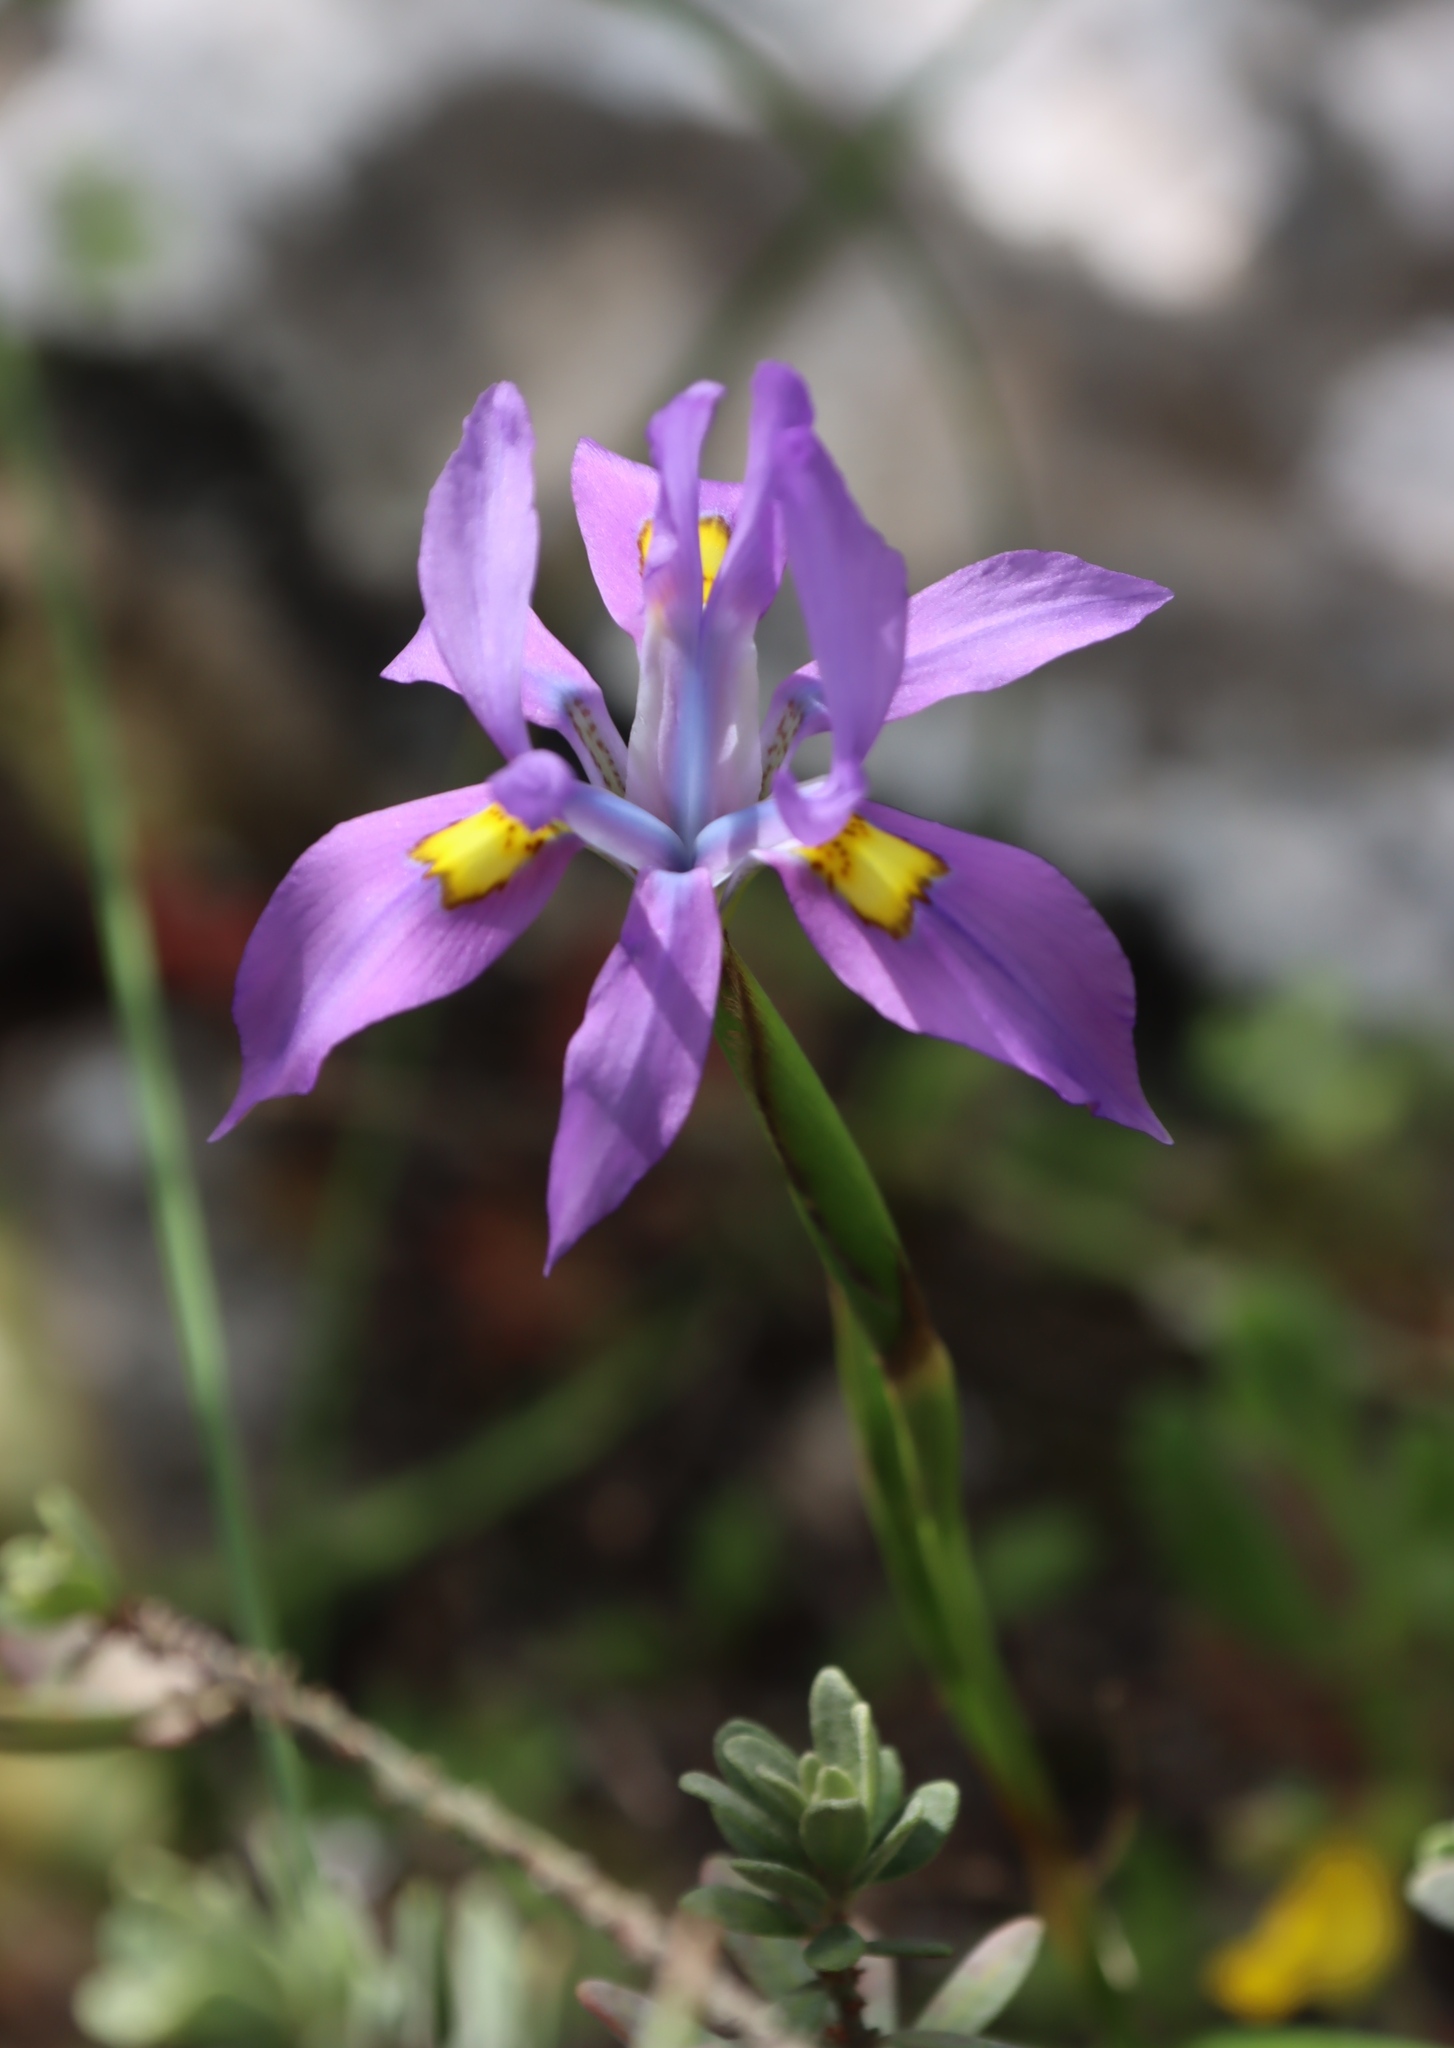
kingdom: Plantae
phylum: Tracheophyta
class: Liliopsida
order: Asparagales
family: Iridaceae
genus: Moraea
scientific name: Moraea fugax
